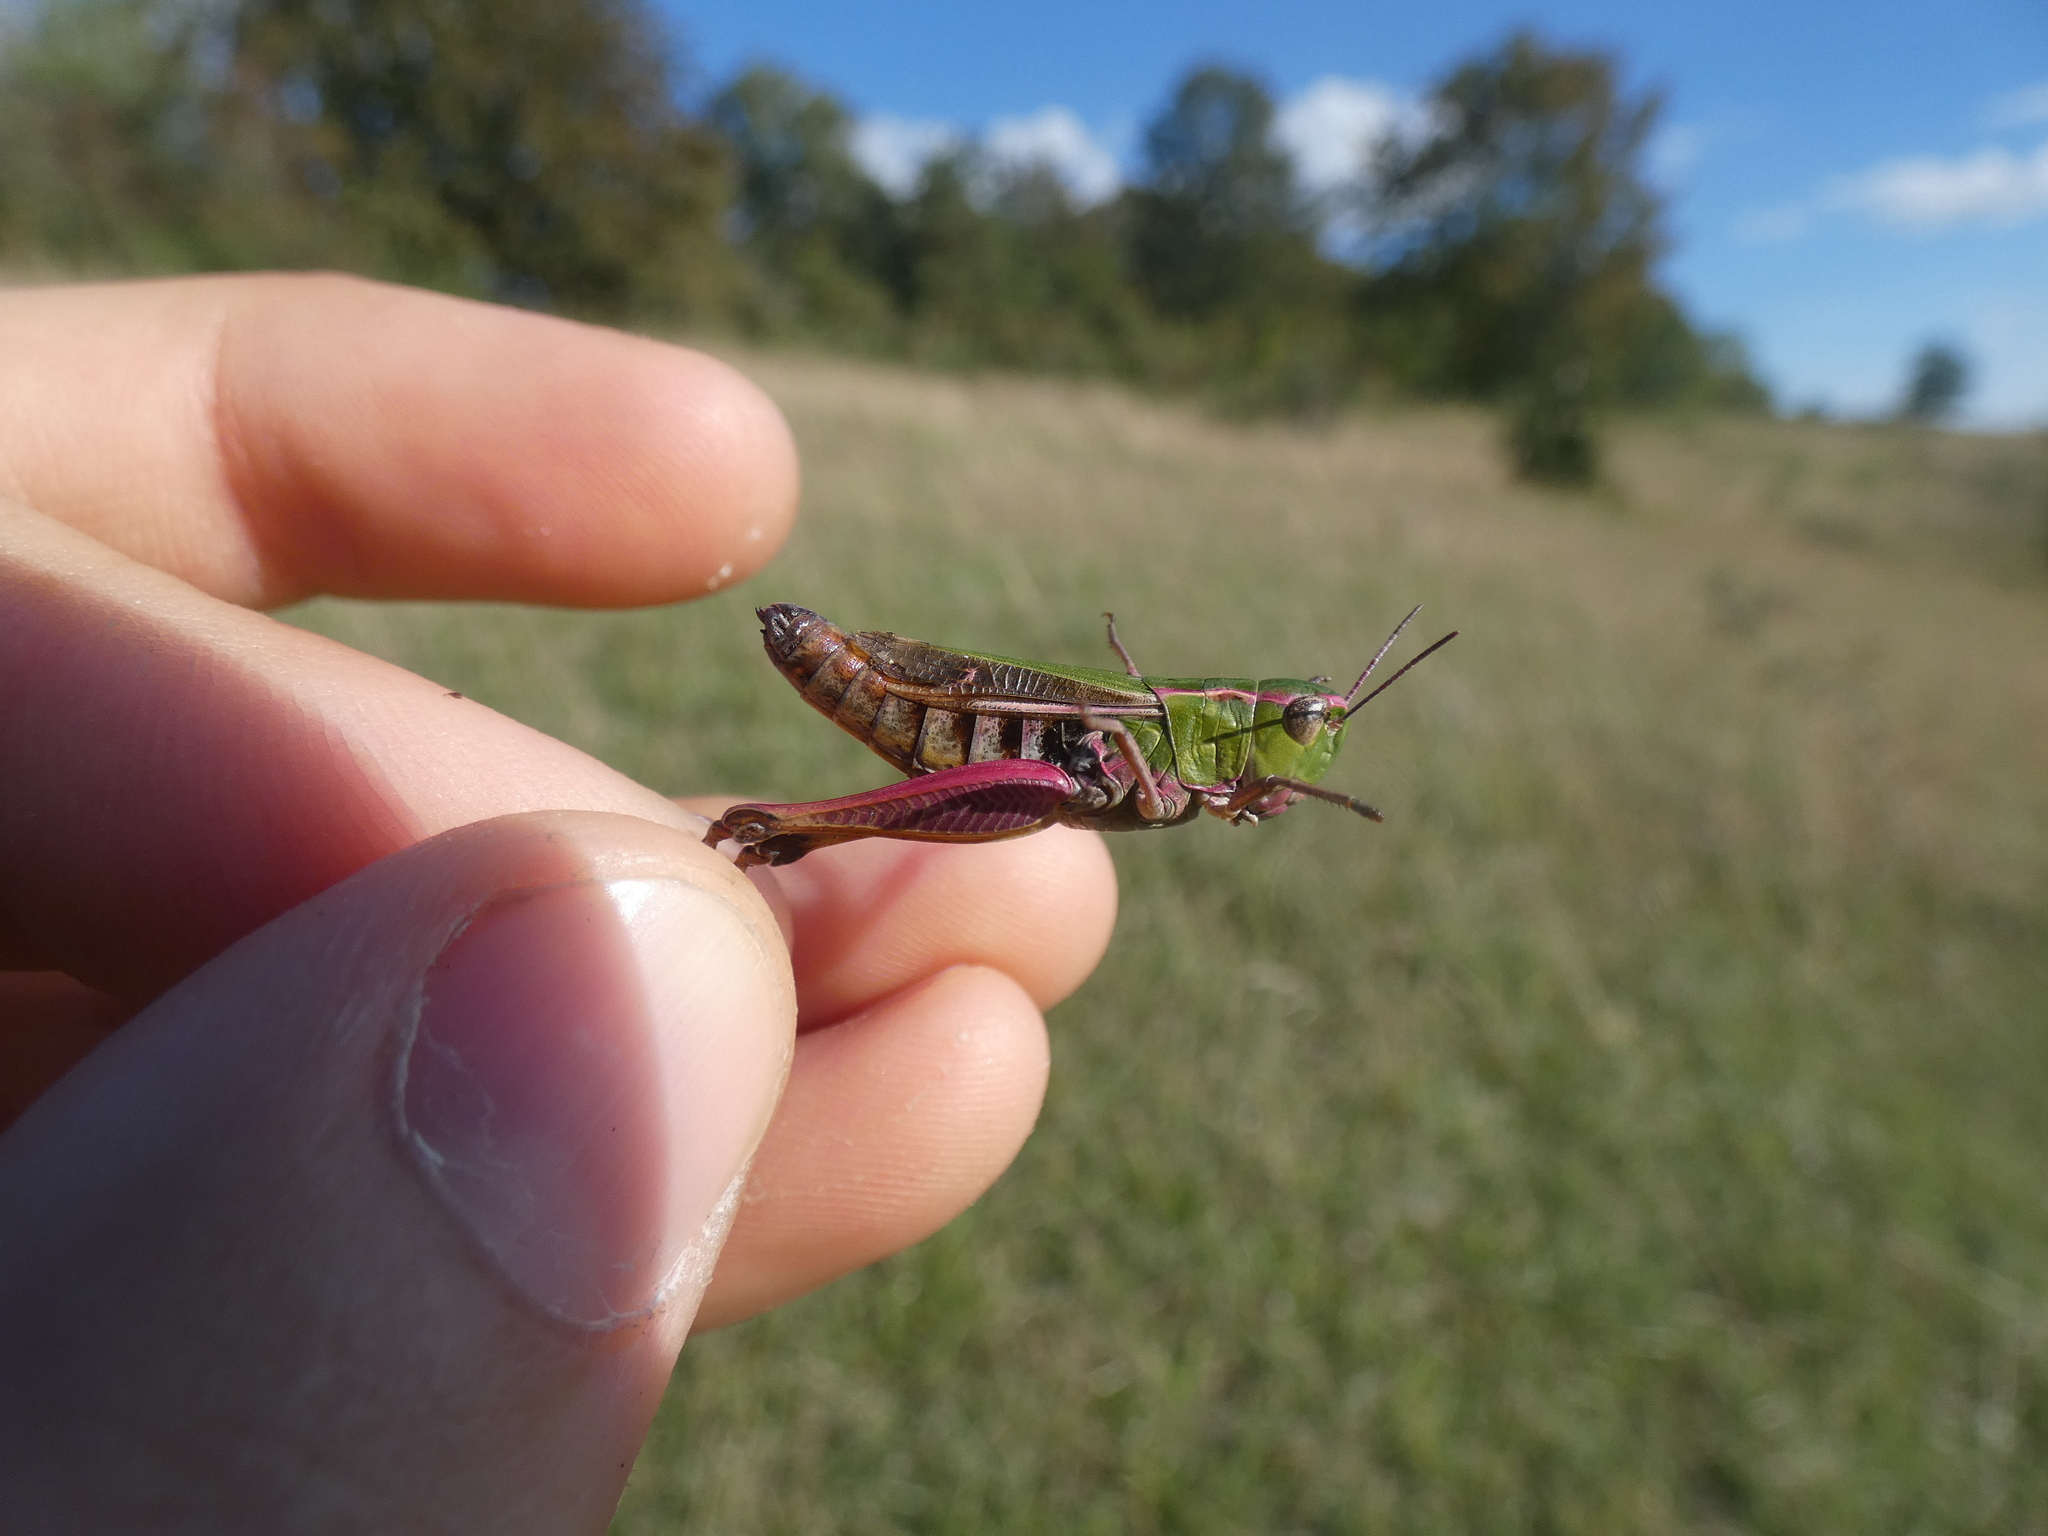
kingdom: Animalia
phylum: Arthropoda
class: Insecta
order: Orthoptera
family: Acrididae
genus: Stenobothrus
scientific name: Stenobothrus lineatus
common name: Stripe-winged grasshopper
